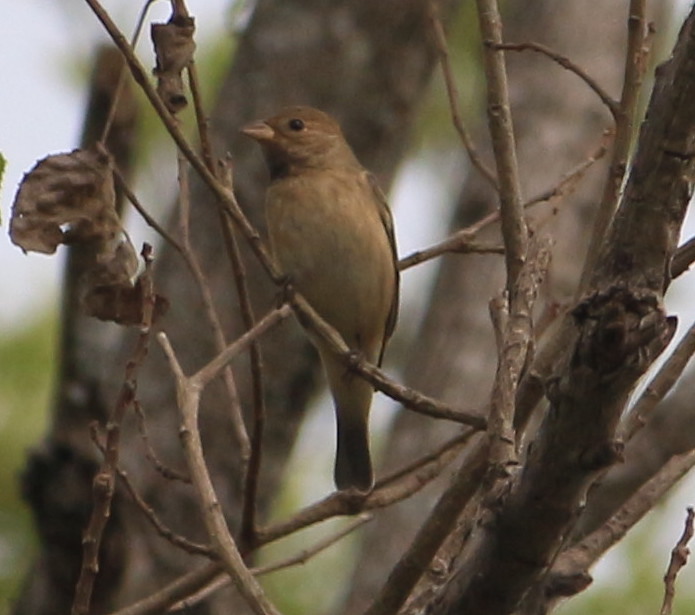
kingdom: Animalia
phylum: Chordata
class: Aves
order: Passeriformes
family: Cardinalidae
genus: Passerina
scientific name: Passerina cyanea
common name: Indigo bunting
